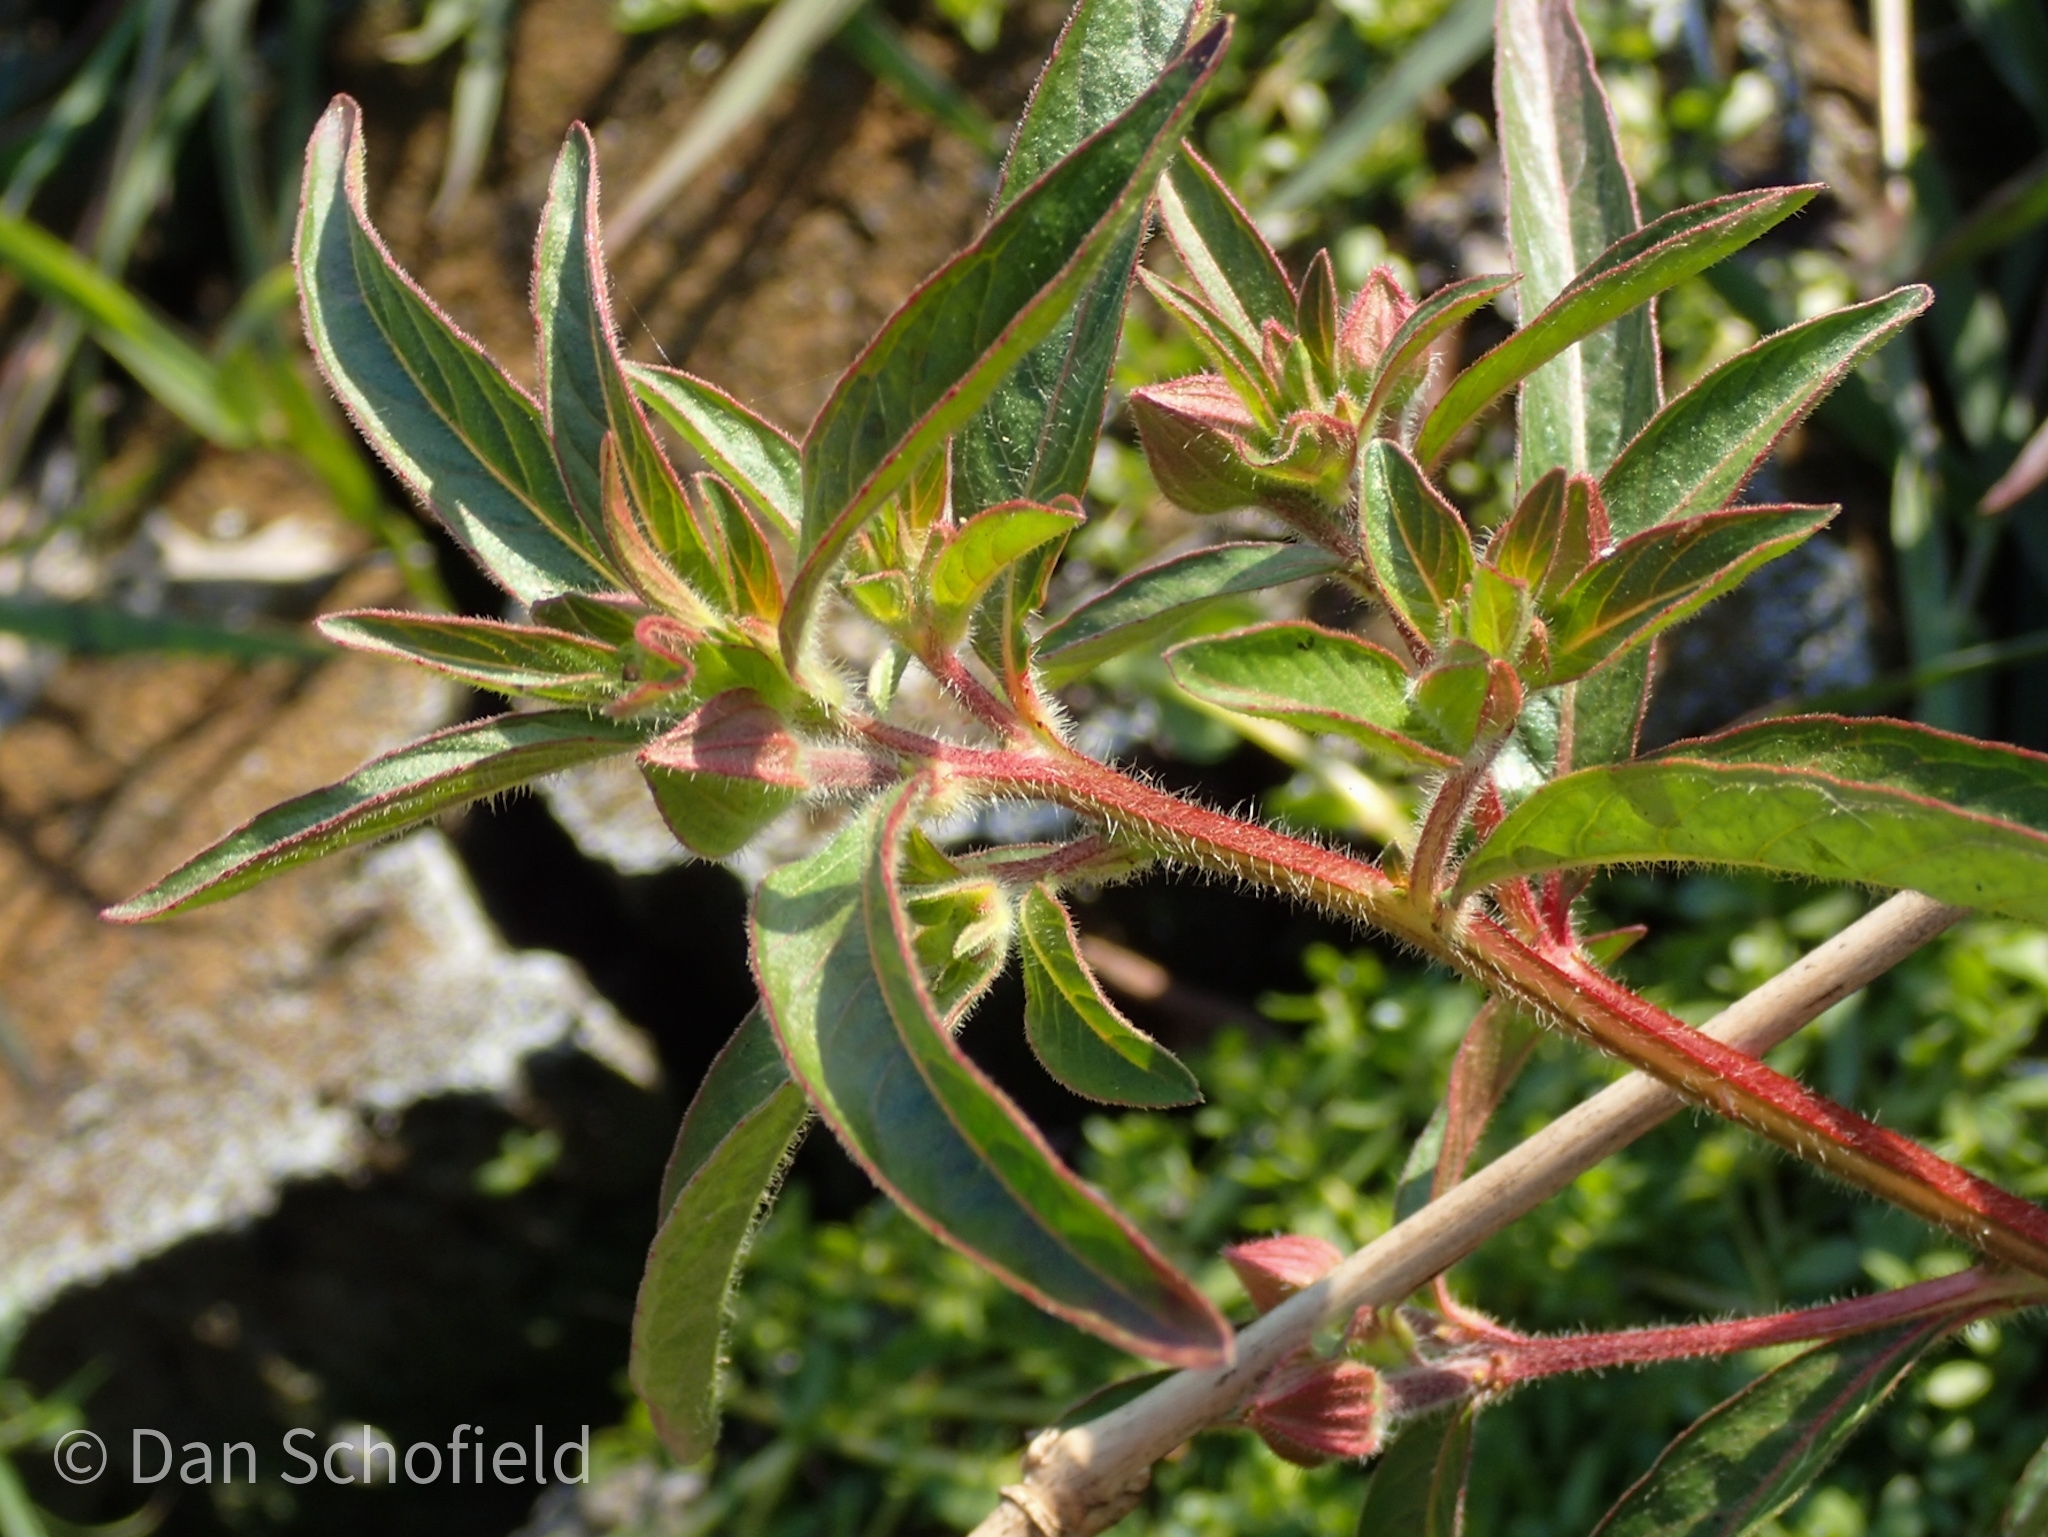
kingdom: Plantae
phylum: Tracheophyta
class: Magnoliopsida
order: Myrtales
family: Onagraceae
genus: Ludwigia
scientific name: Ludwigia octovalvis
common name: Water-primrose
